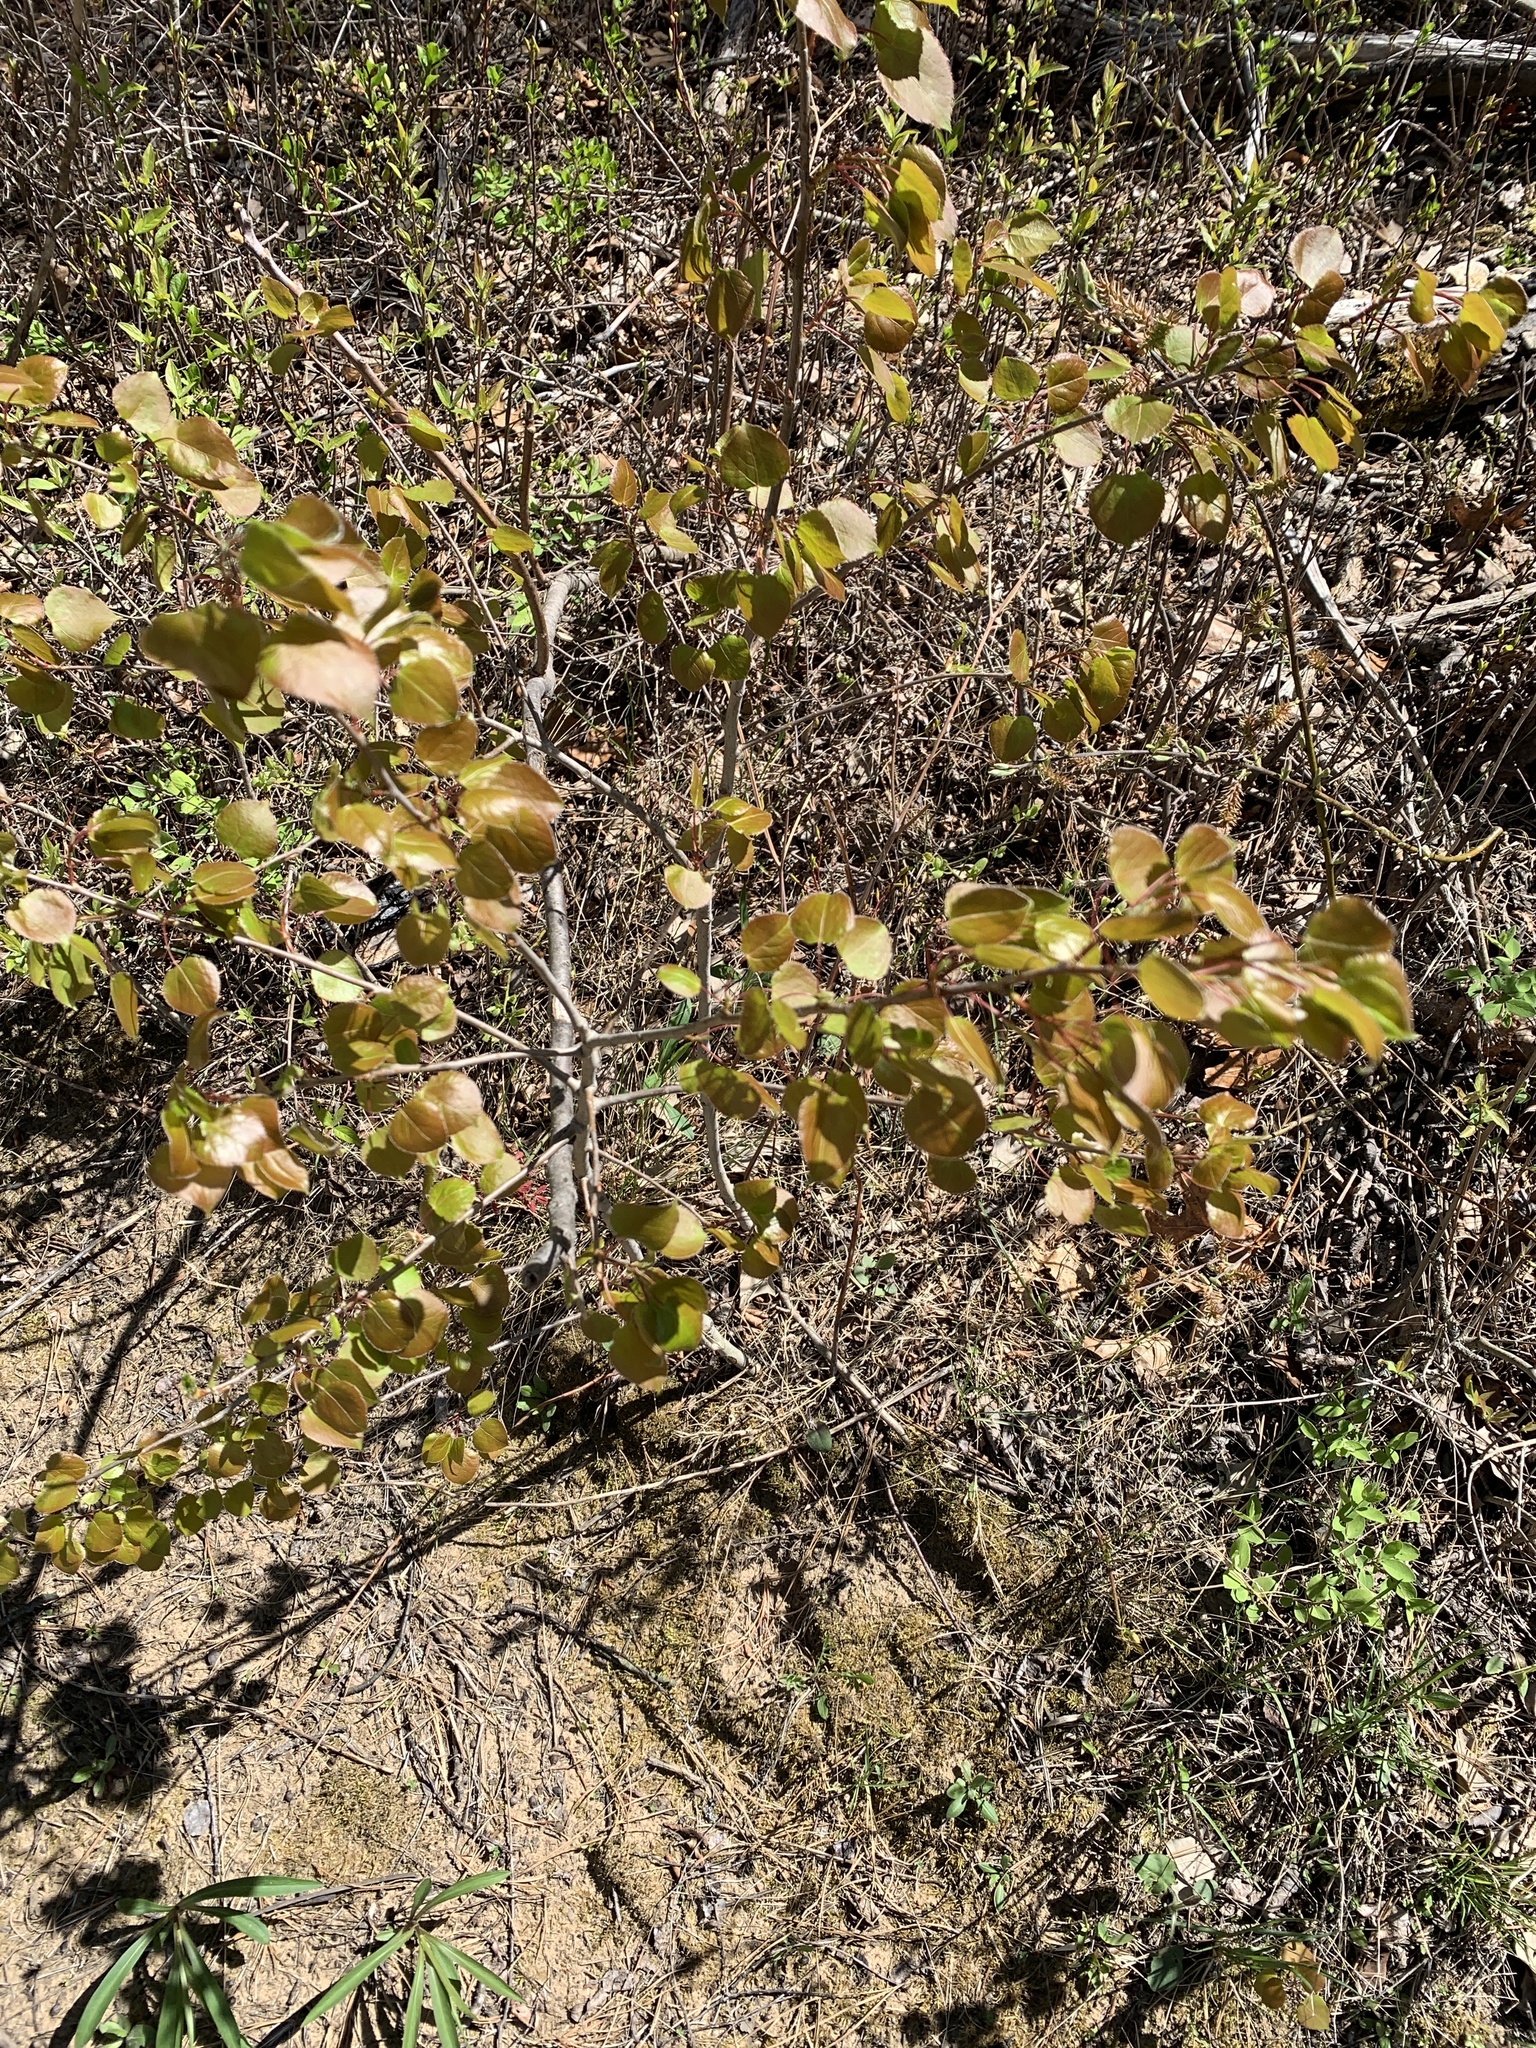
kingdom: Plantae
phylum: Tracheophyta
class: Magnoliopsida
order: Malpighiales
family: Salicaceae
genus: Populus
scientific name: Populus tremuloides
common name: Quaking aspen
